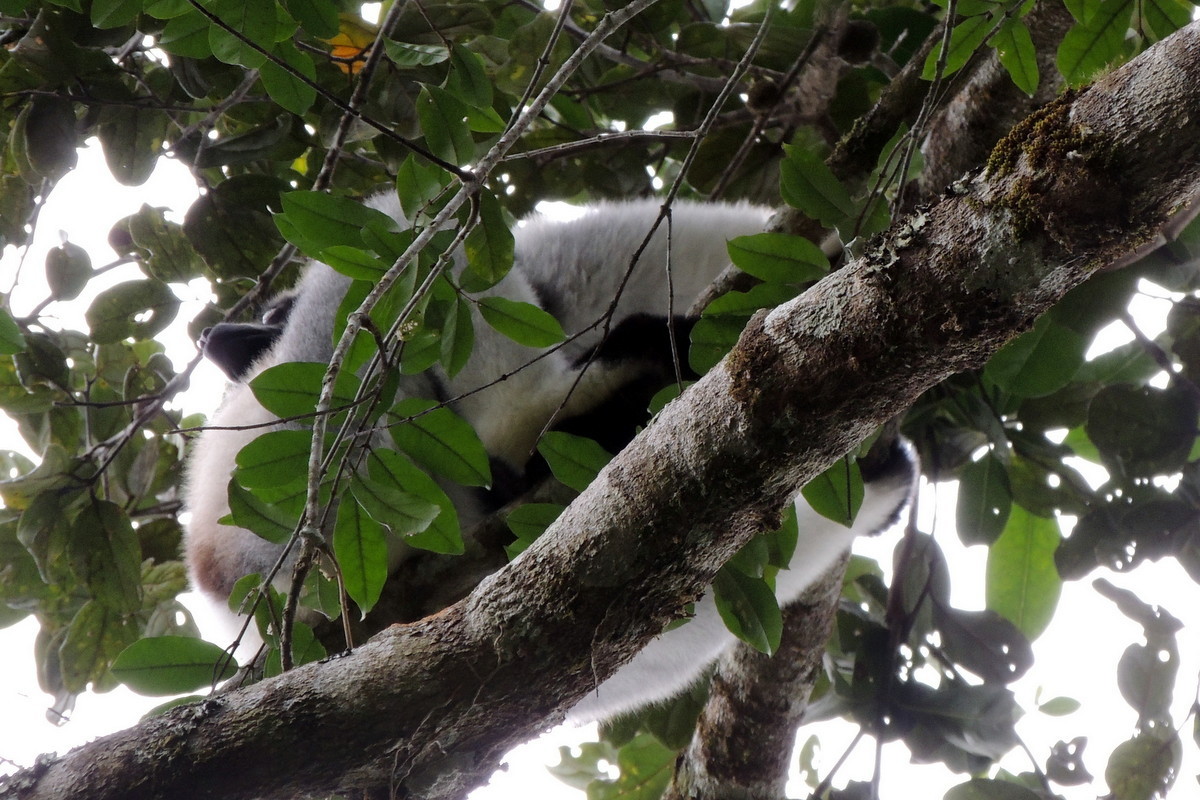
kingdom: Animalia
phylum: Chordata
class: Mammalia
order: Primates
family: Indriidae
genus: Indri
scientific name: Indri indri
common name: Indri
